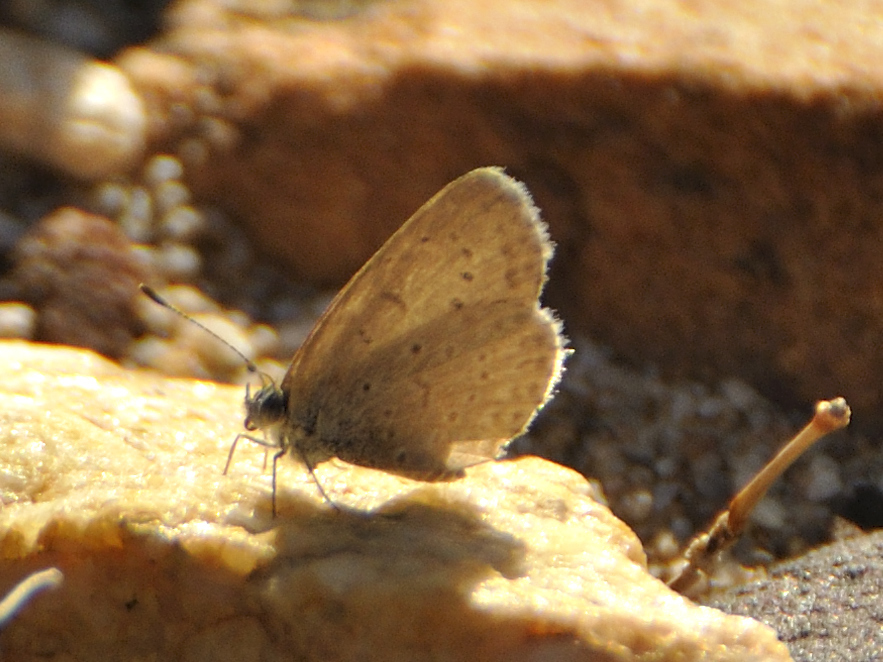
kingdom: Animalia
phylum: Arthropoda
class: Insecta
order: Lepidoptera
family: Lycaenidae
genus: Zizeeria
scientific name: Zizeeria knysna
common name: African grass blue
